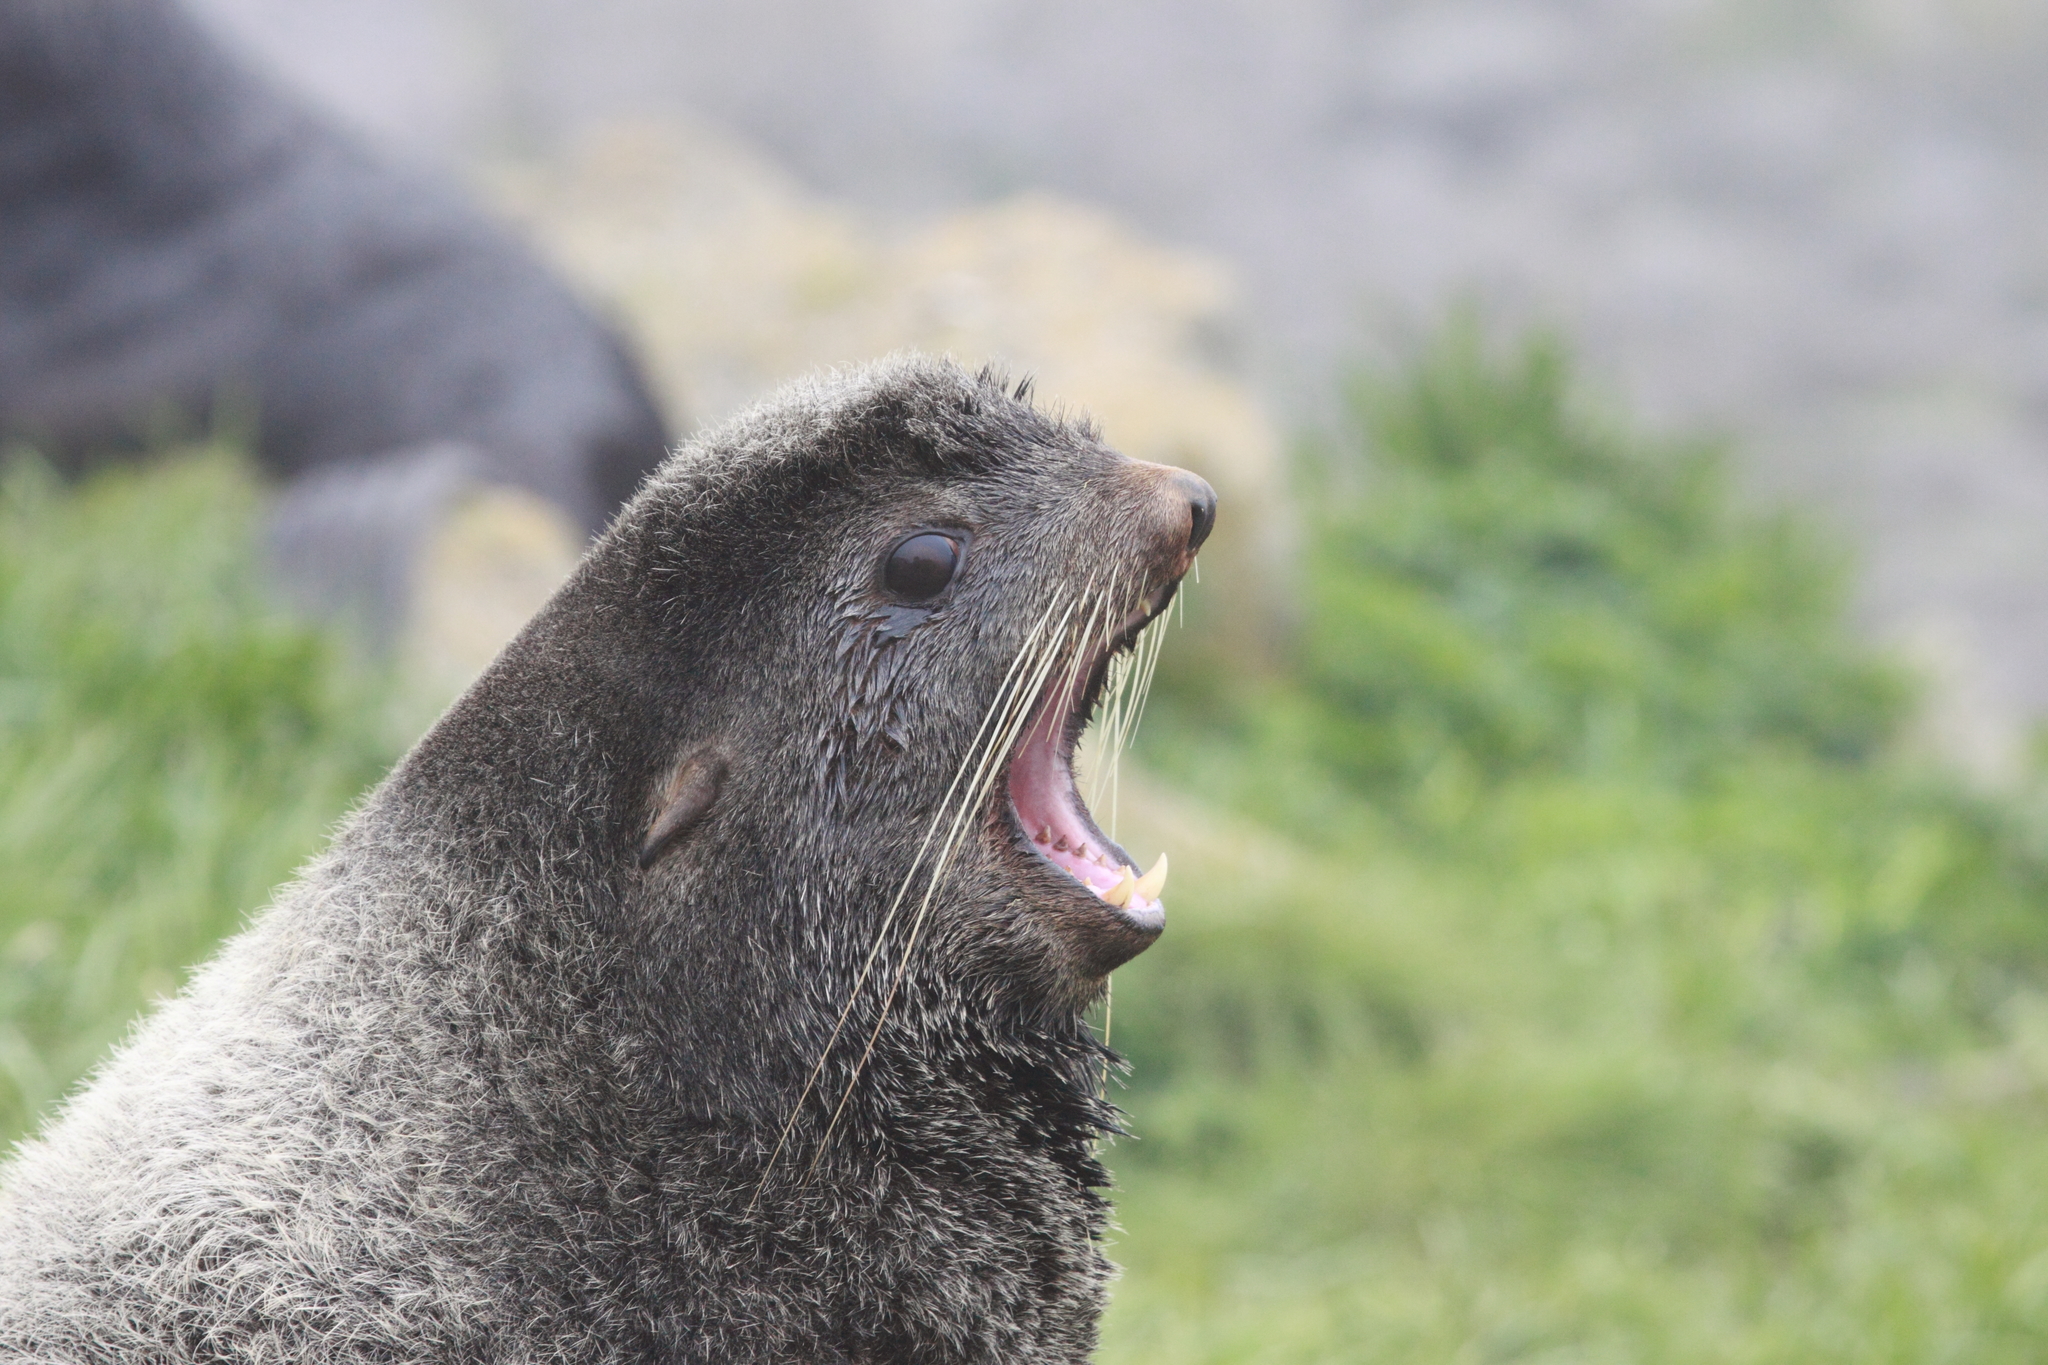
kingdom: Animalia
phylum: Chordata
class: Mammalia
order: Carnivora
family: Otariidae
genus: Callorhinus
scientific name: Callorhinus ursinus
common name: Northern fur seal
